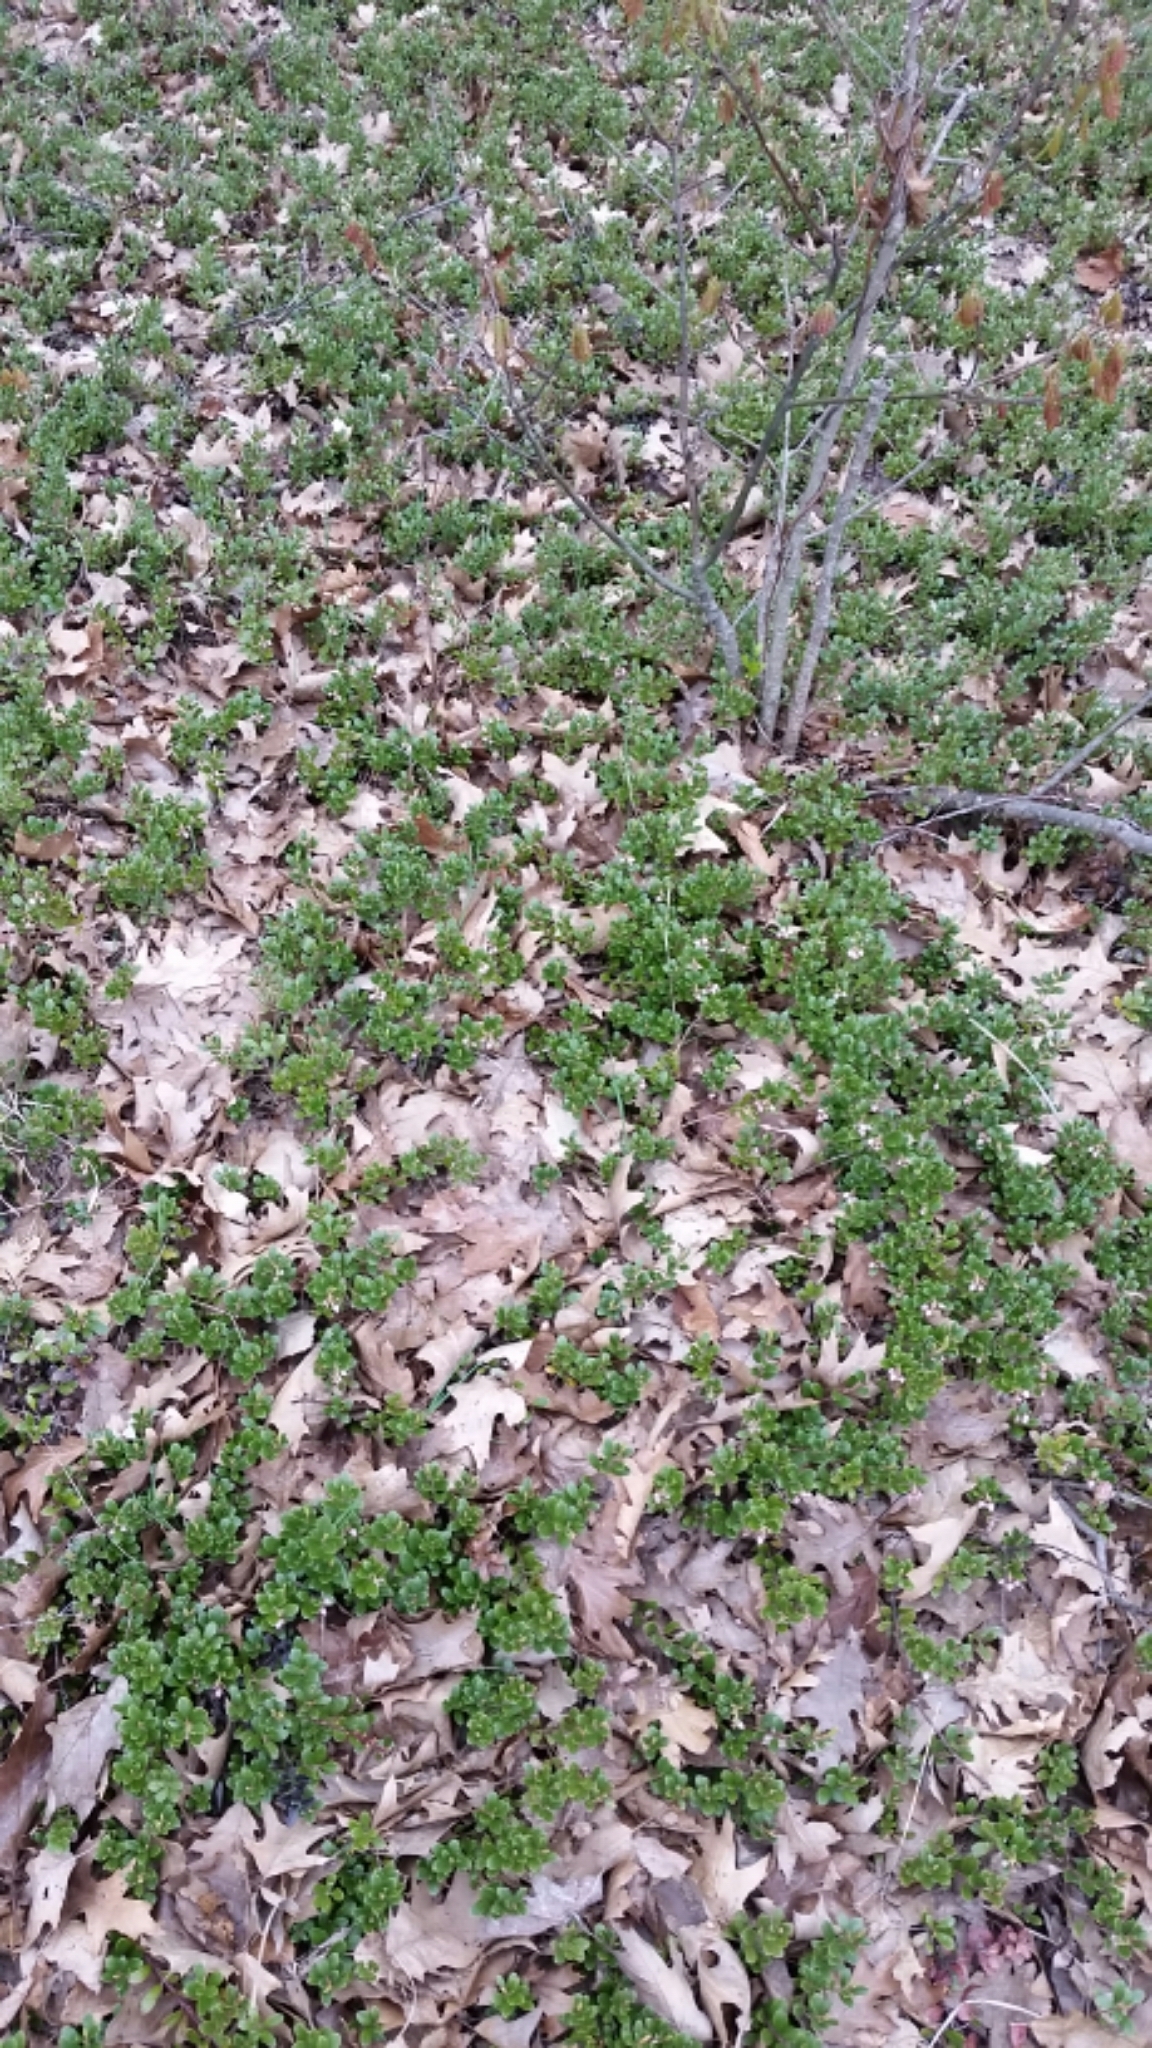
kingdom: Plantae
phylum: Tracheophyta
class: Magnoliopsida
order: Ericales
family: Ericaceae
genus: Arctostaphylos
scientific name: Arctostaphylos uva-ursi
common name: Bearberry
